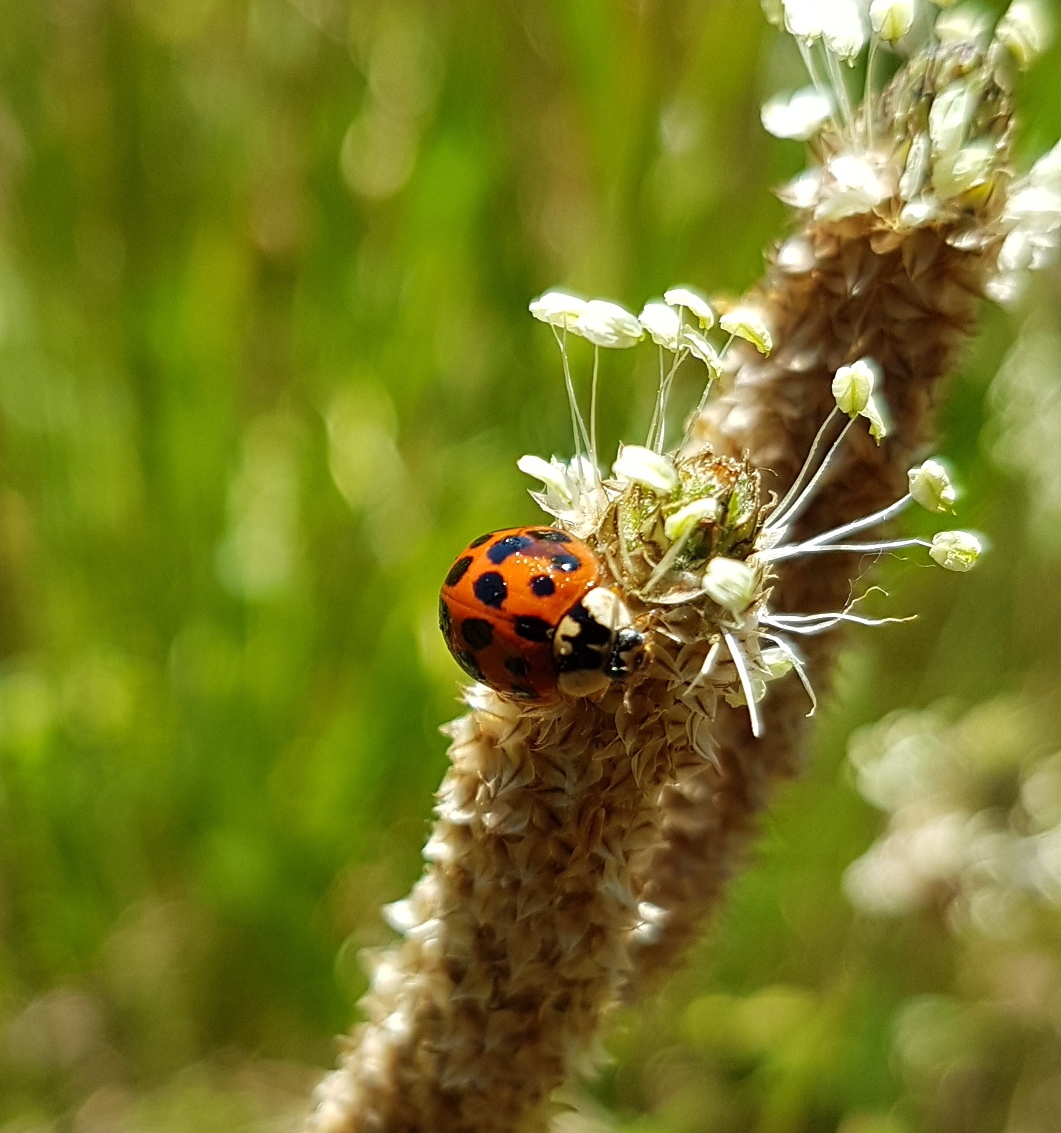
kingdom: Animalia
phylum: Arthropoda
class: Insecta
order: Coleoptera
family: Coccinellidae
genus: Harmonia
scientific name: Harmonia axyridis
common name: Harlequin ladybird
